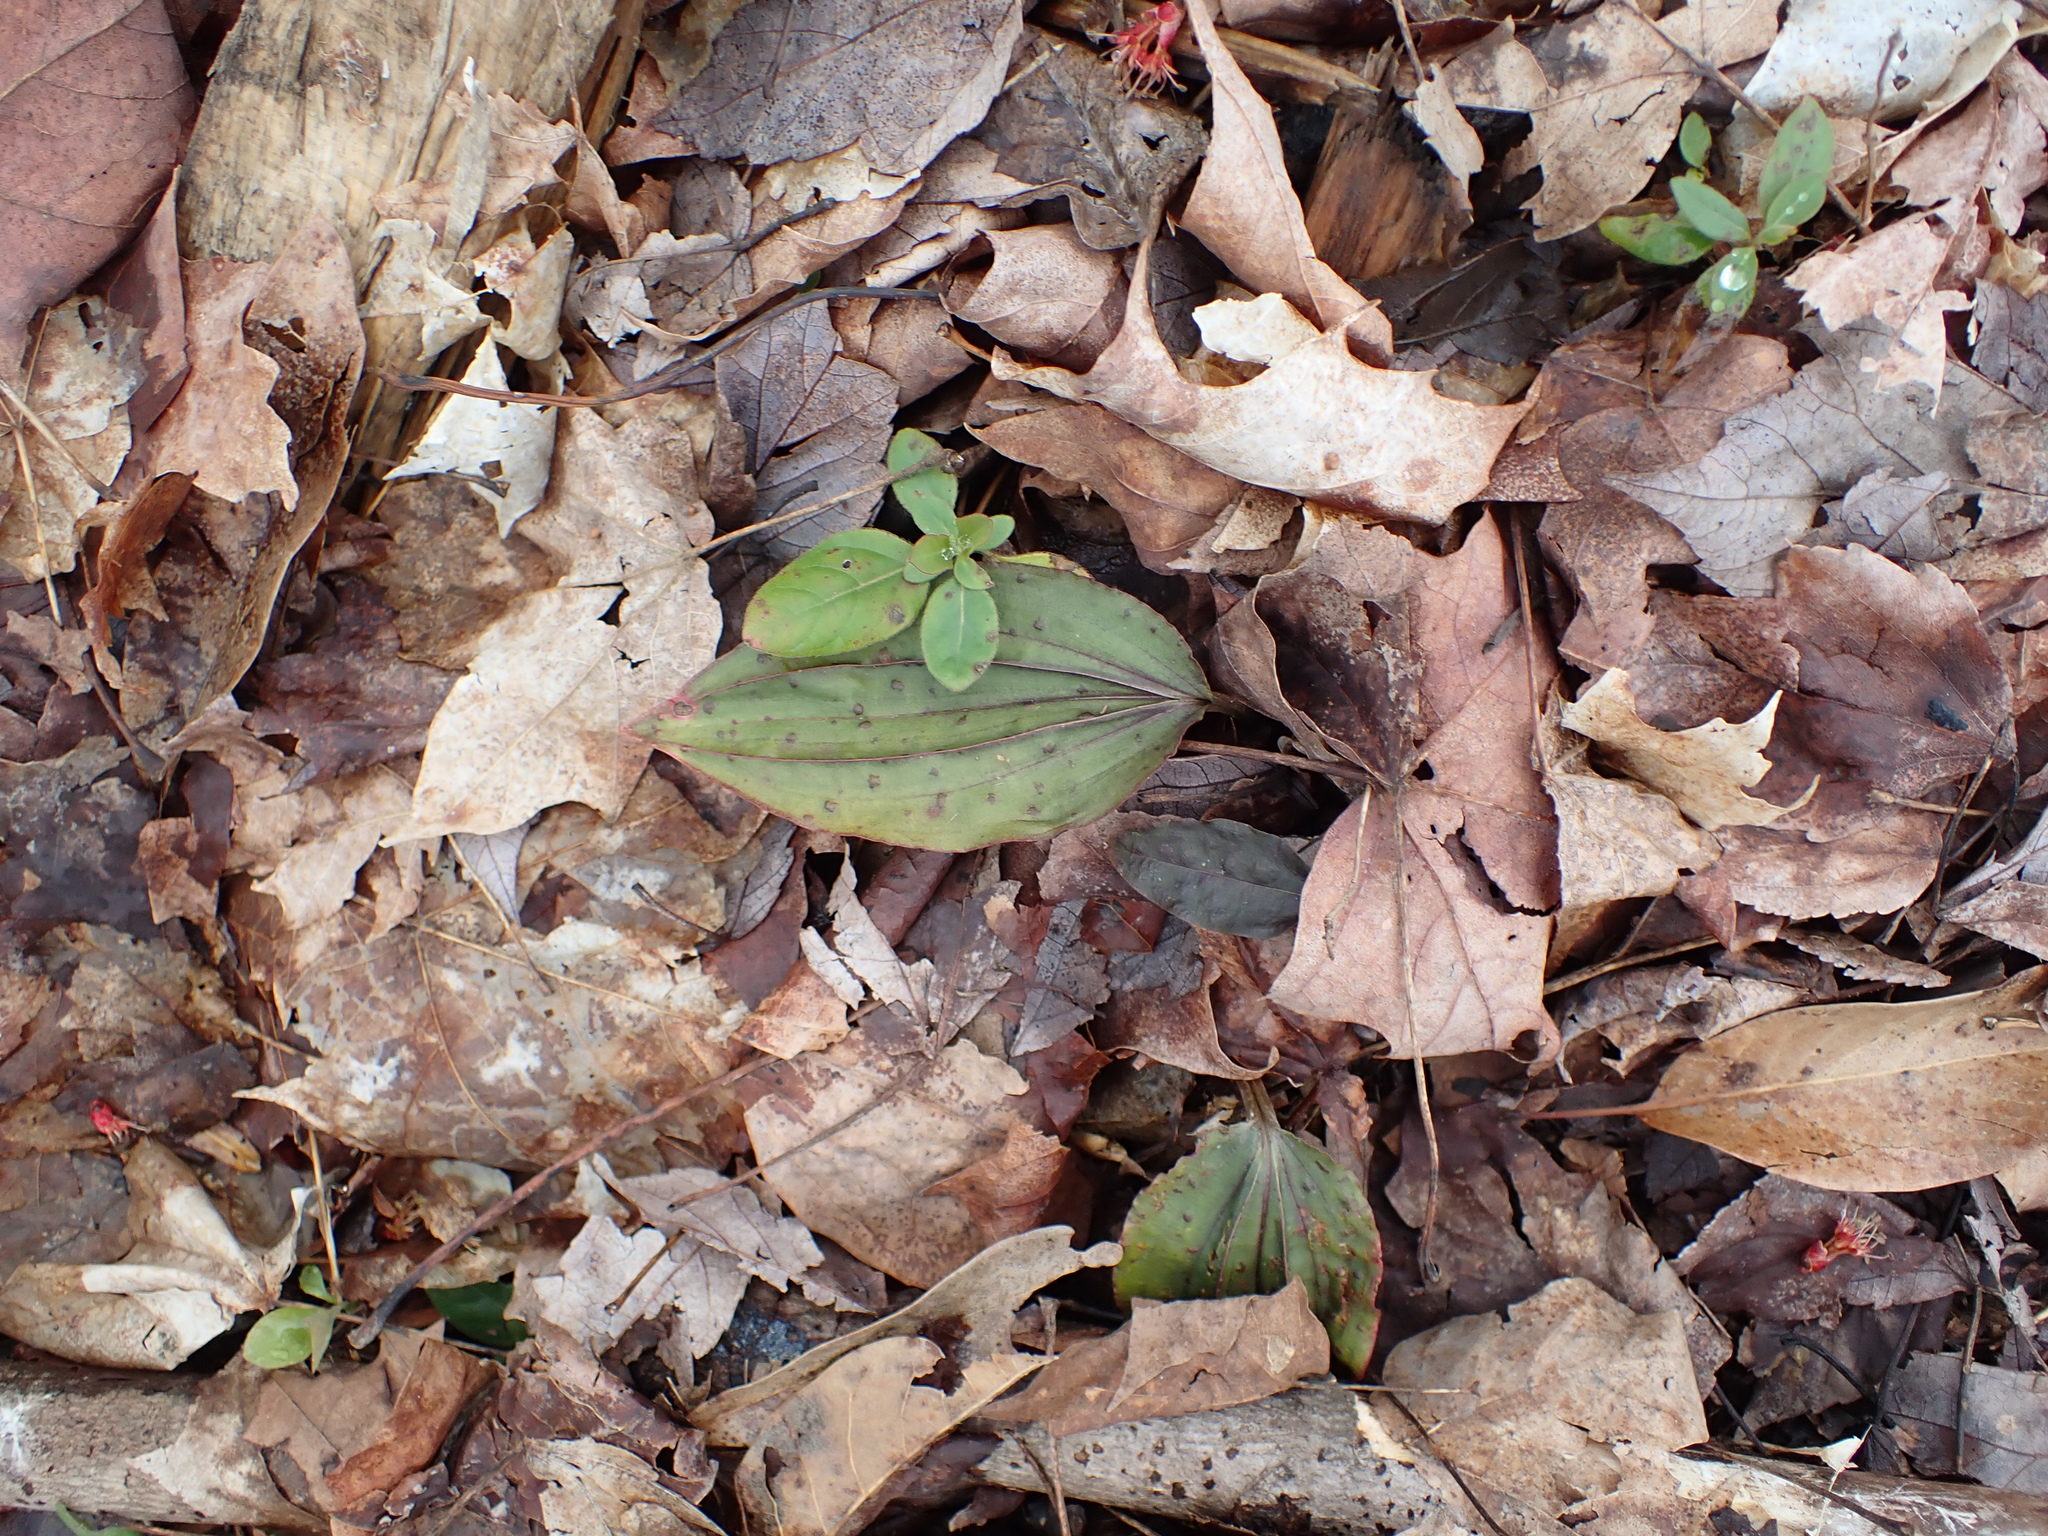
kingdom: Plantae
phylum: Tracheophyta
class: Liliopsida
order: Asparagales
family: Orchidaceae
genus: Tipularia
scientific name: Tipularia discolor
